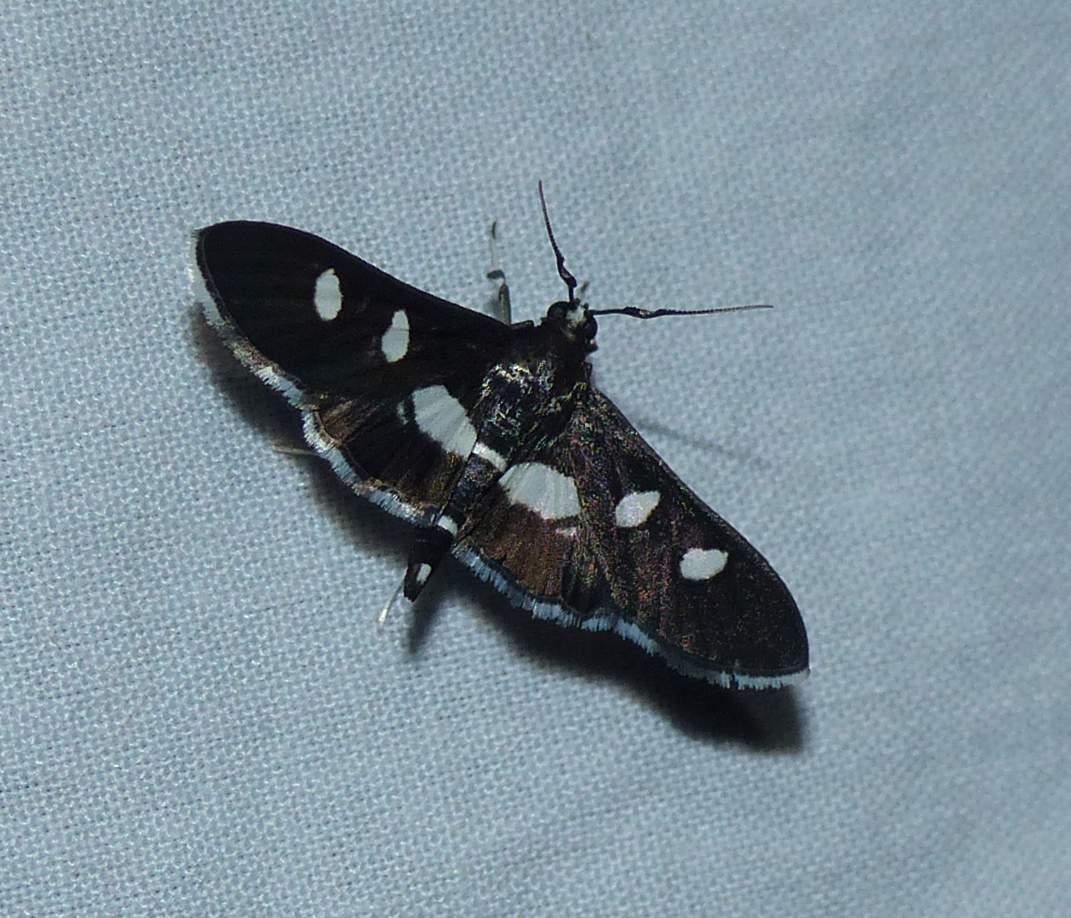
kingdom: Animalia
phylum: Arthropoda
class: Insecta
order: Lepidoptera
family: Crambidae
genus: Desmia
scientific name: Desmia
